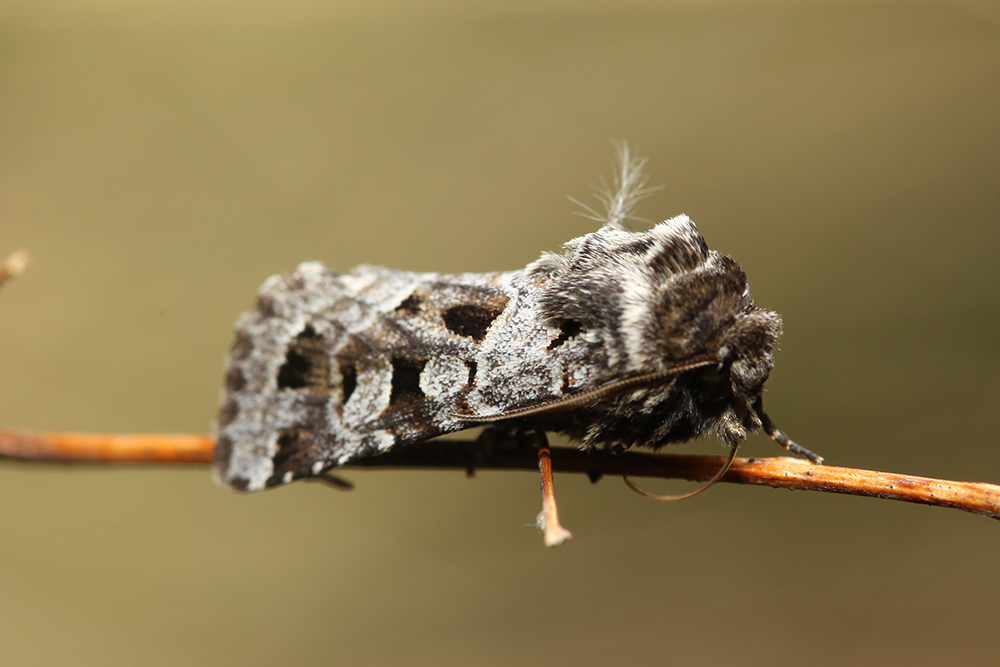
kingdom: Animalia
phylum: Arthropoda
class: Insecta
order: Lepidoptera
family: Noctuidae
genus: Saragossa
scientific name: Saragossa porosa
